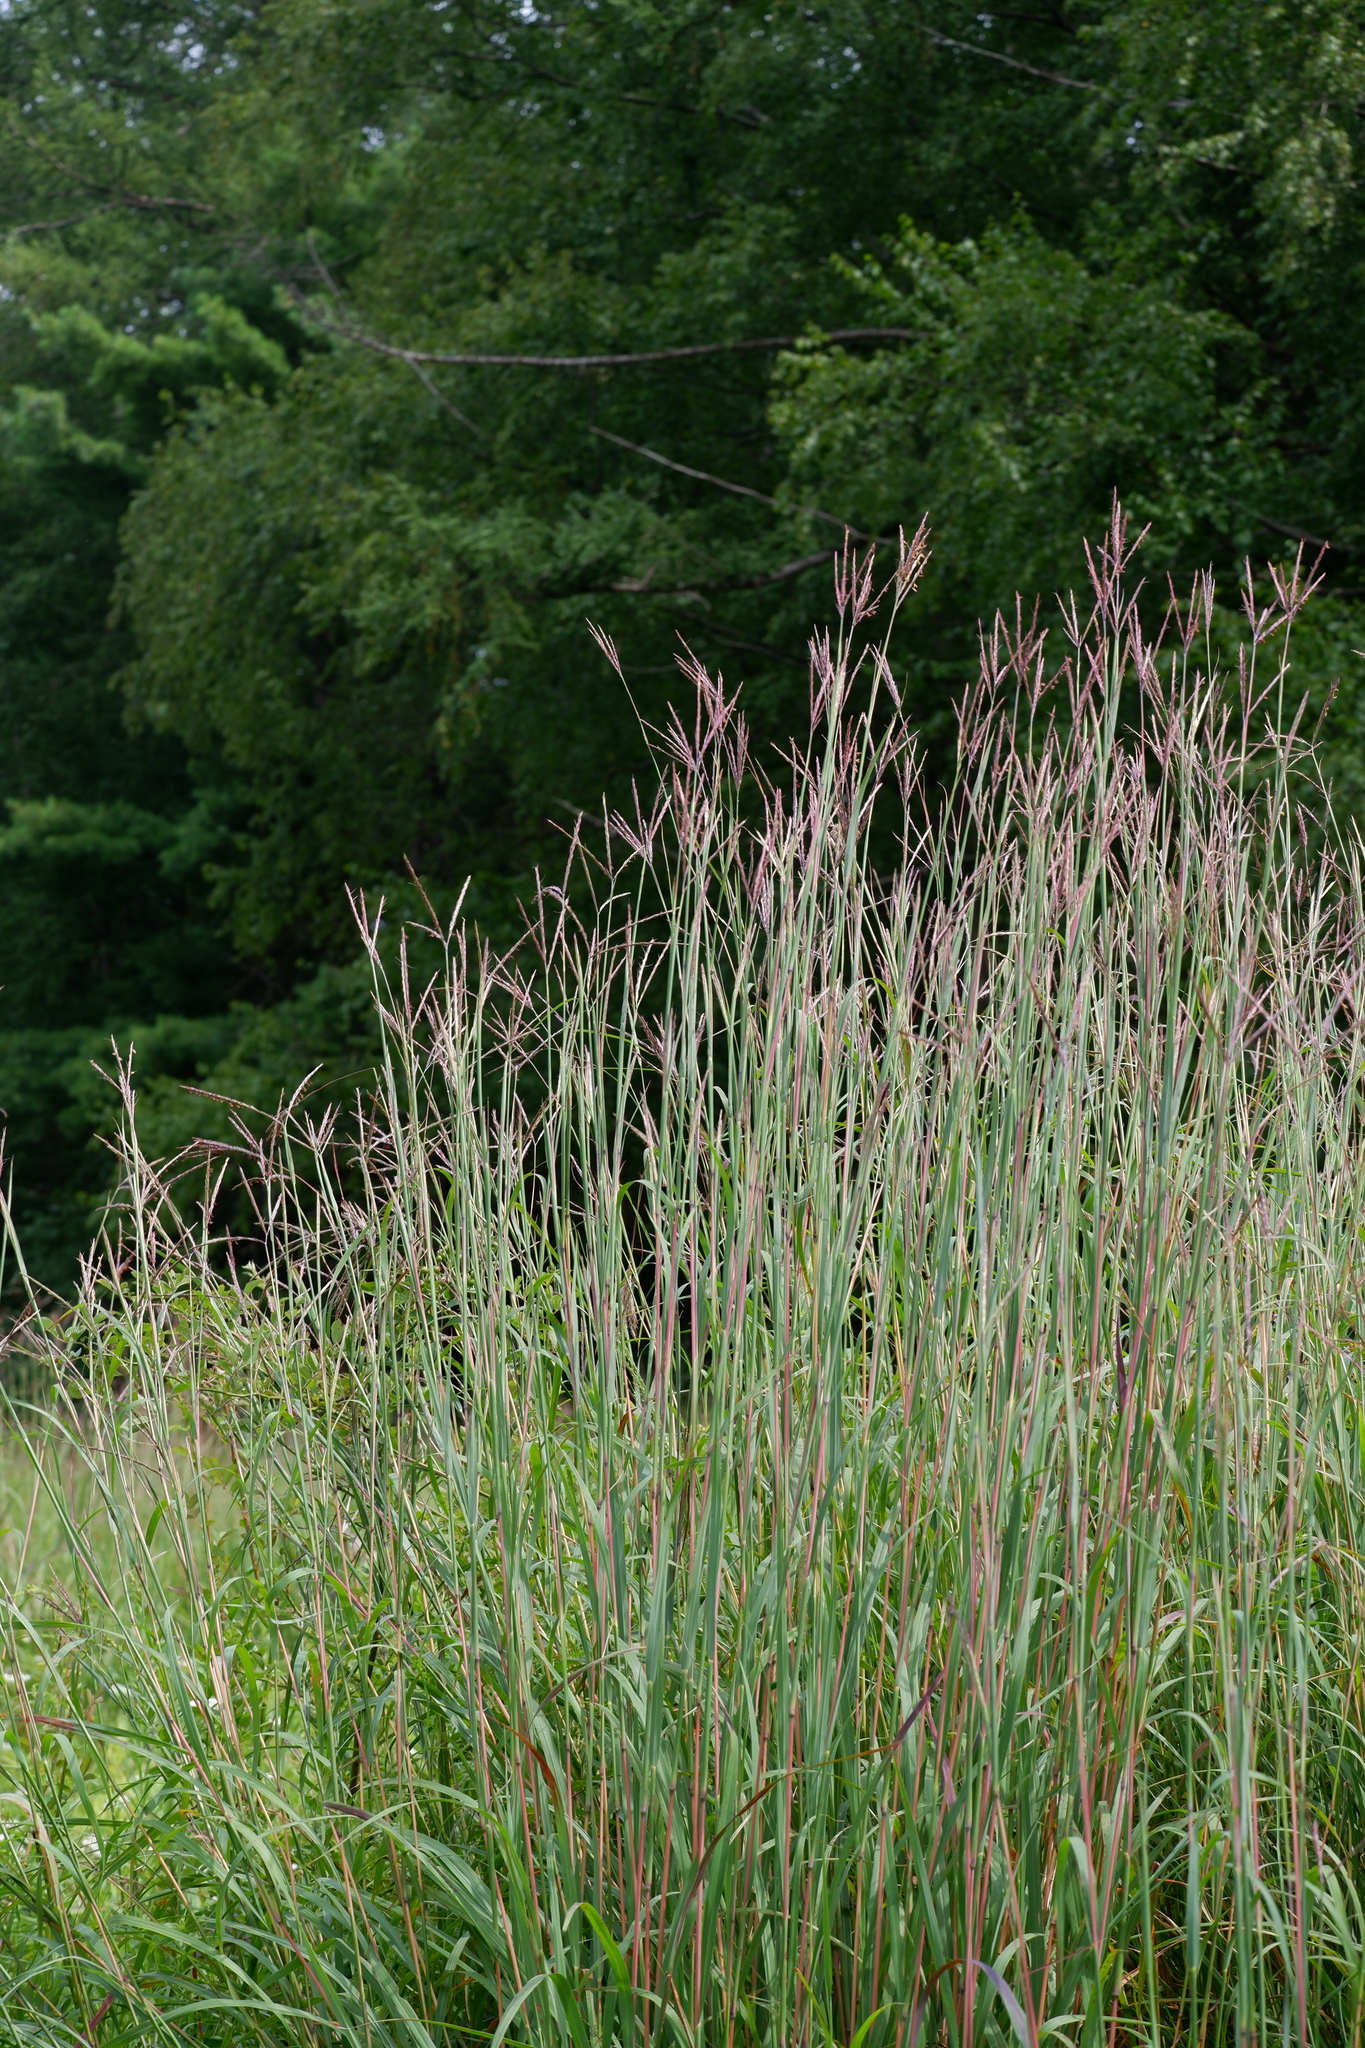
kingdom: Plantae
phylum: Tracheophyta
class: Liliopsida
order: Poales
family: Poaceae
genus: Andropogon
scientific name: Andropogon gerardi
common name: Big bluestem
